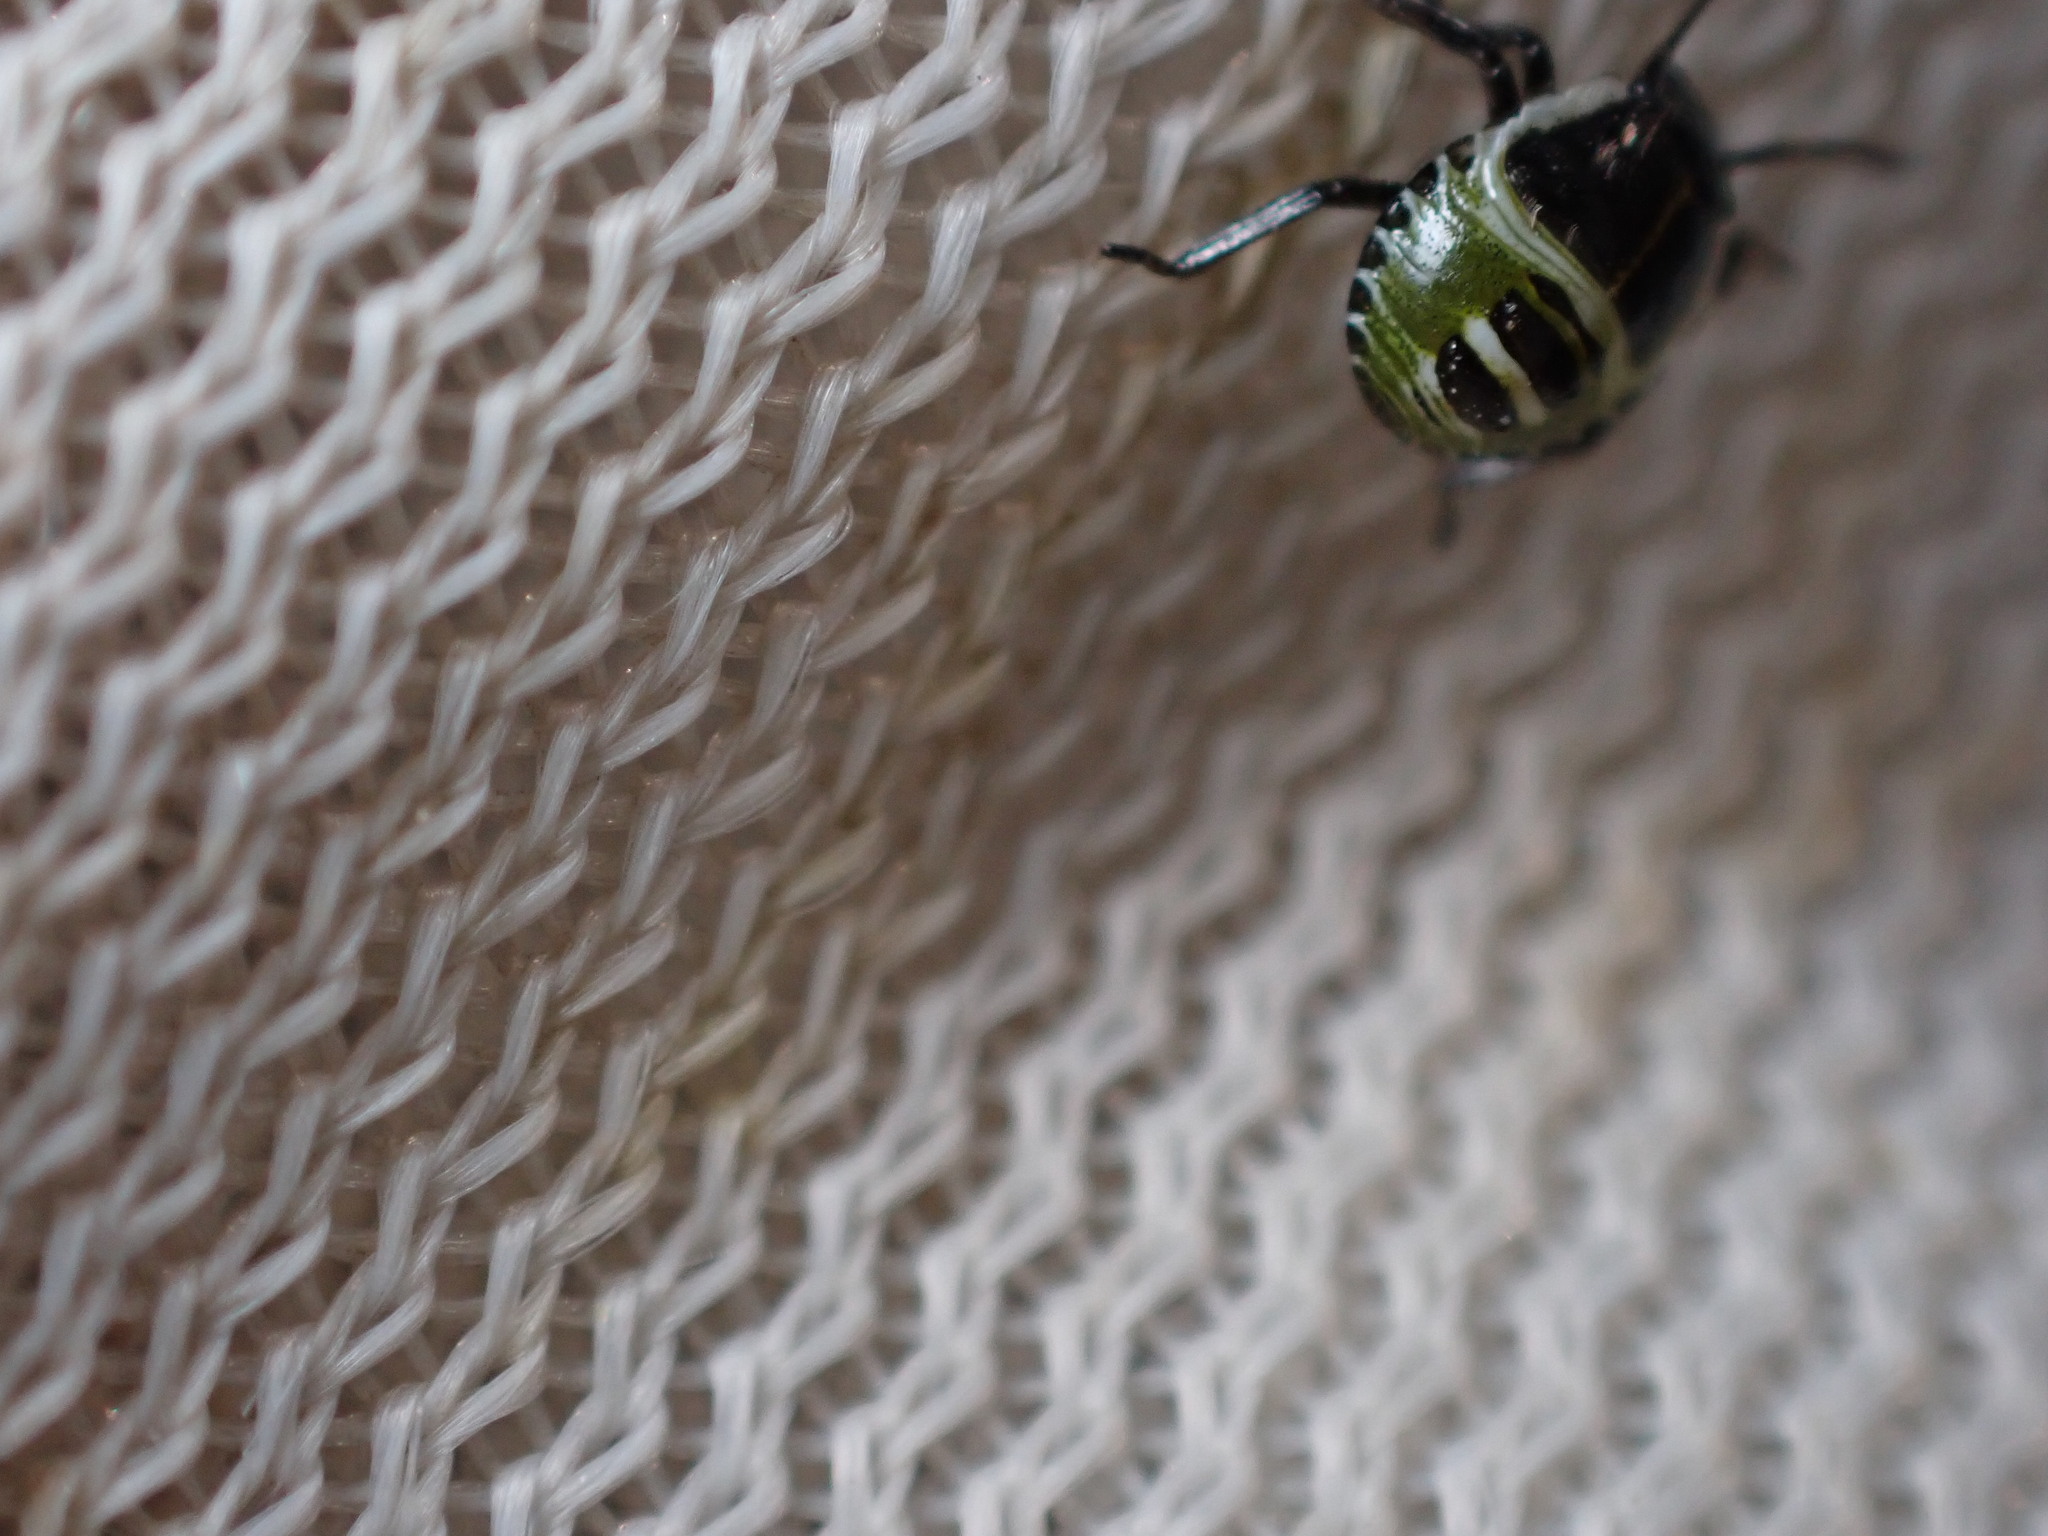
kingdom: Animalia
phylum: Arthropoda
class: Insecta
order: Hemiptera
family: Pentatomidae
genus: Palomena
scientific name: Palomena prasina
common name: Green shieldbug
